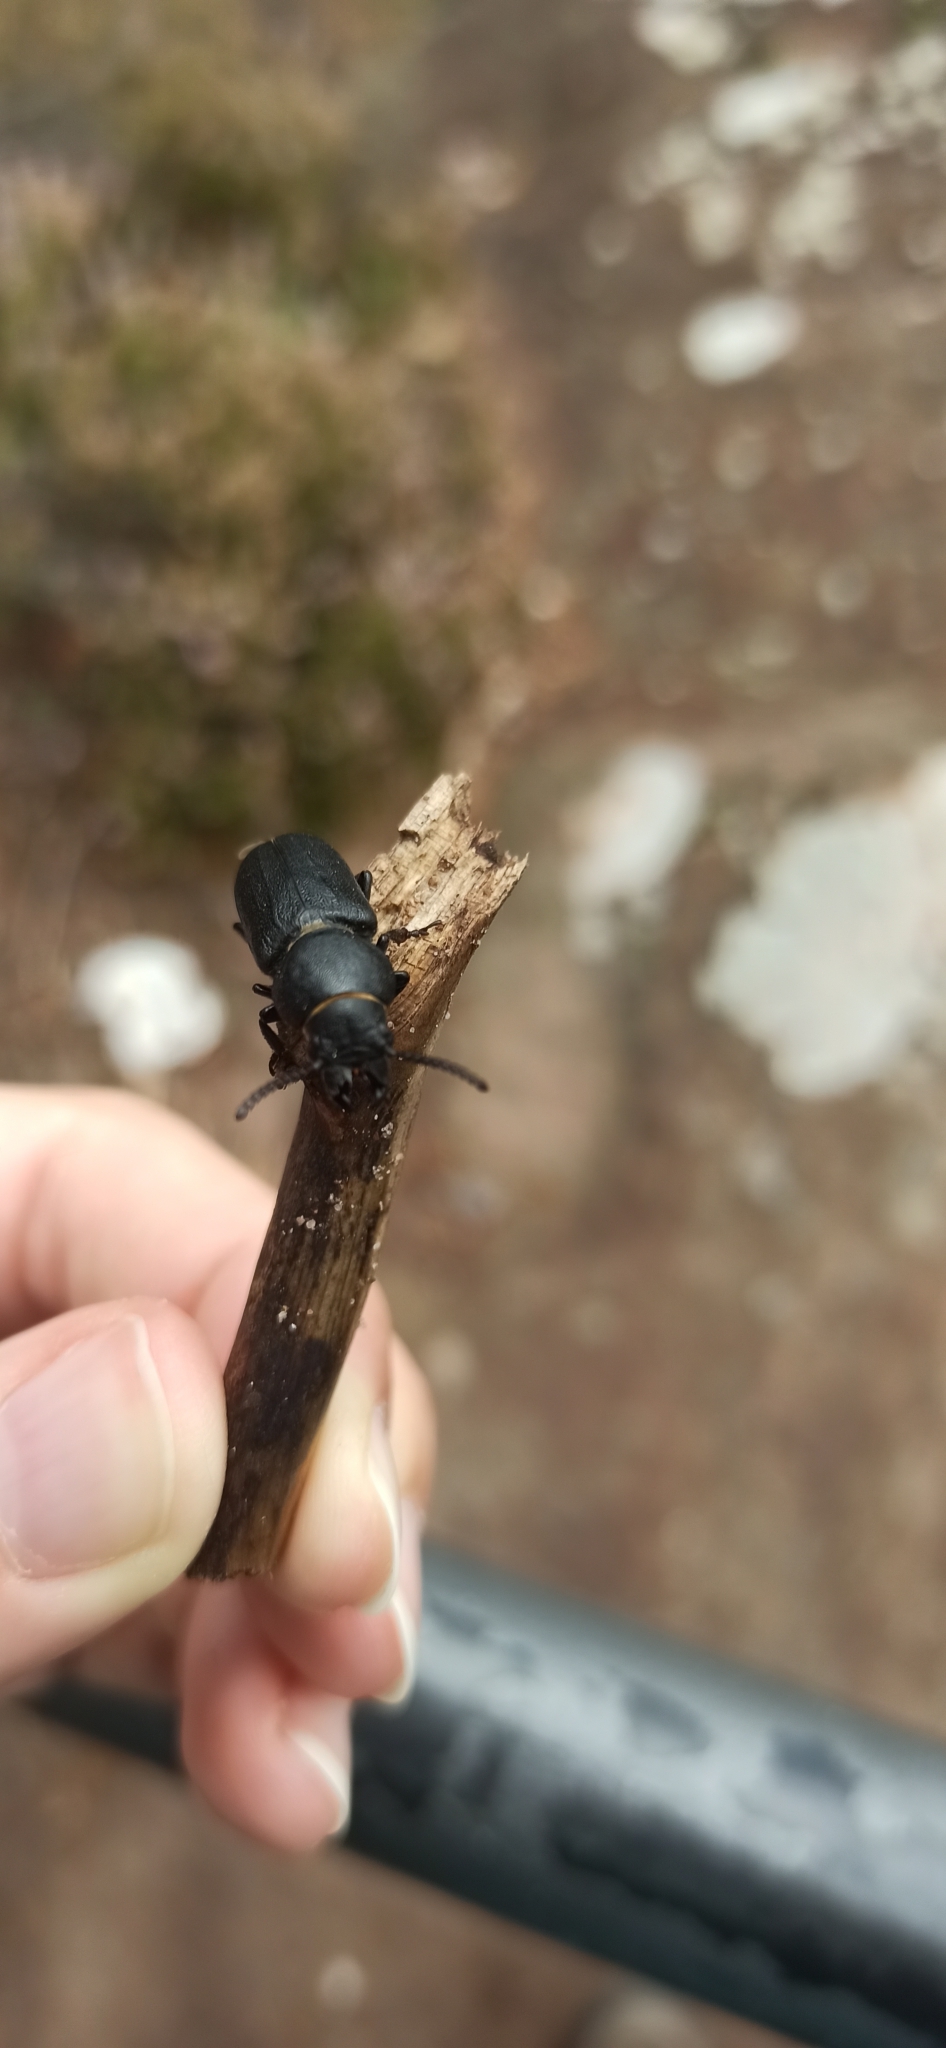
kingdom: Animalia
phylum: Arthropoda
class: Insecta
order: Coleoptera
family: Cerambycidae
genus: Spondylis
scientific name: Spondylis buprestoides
